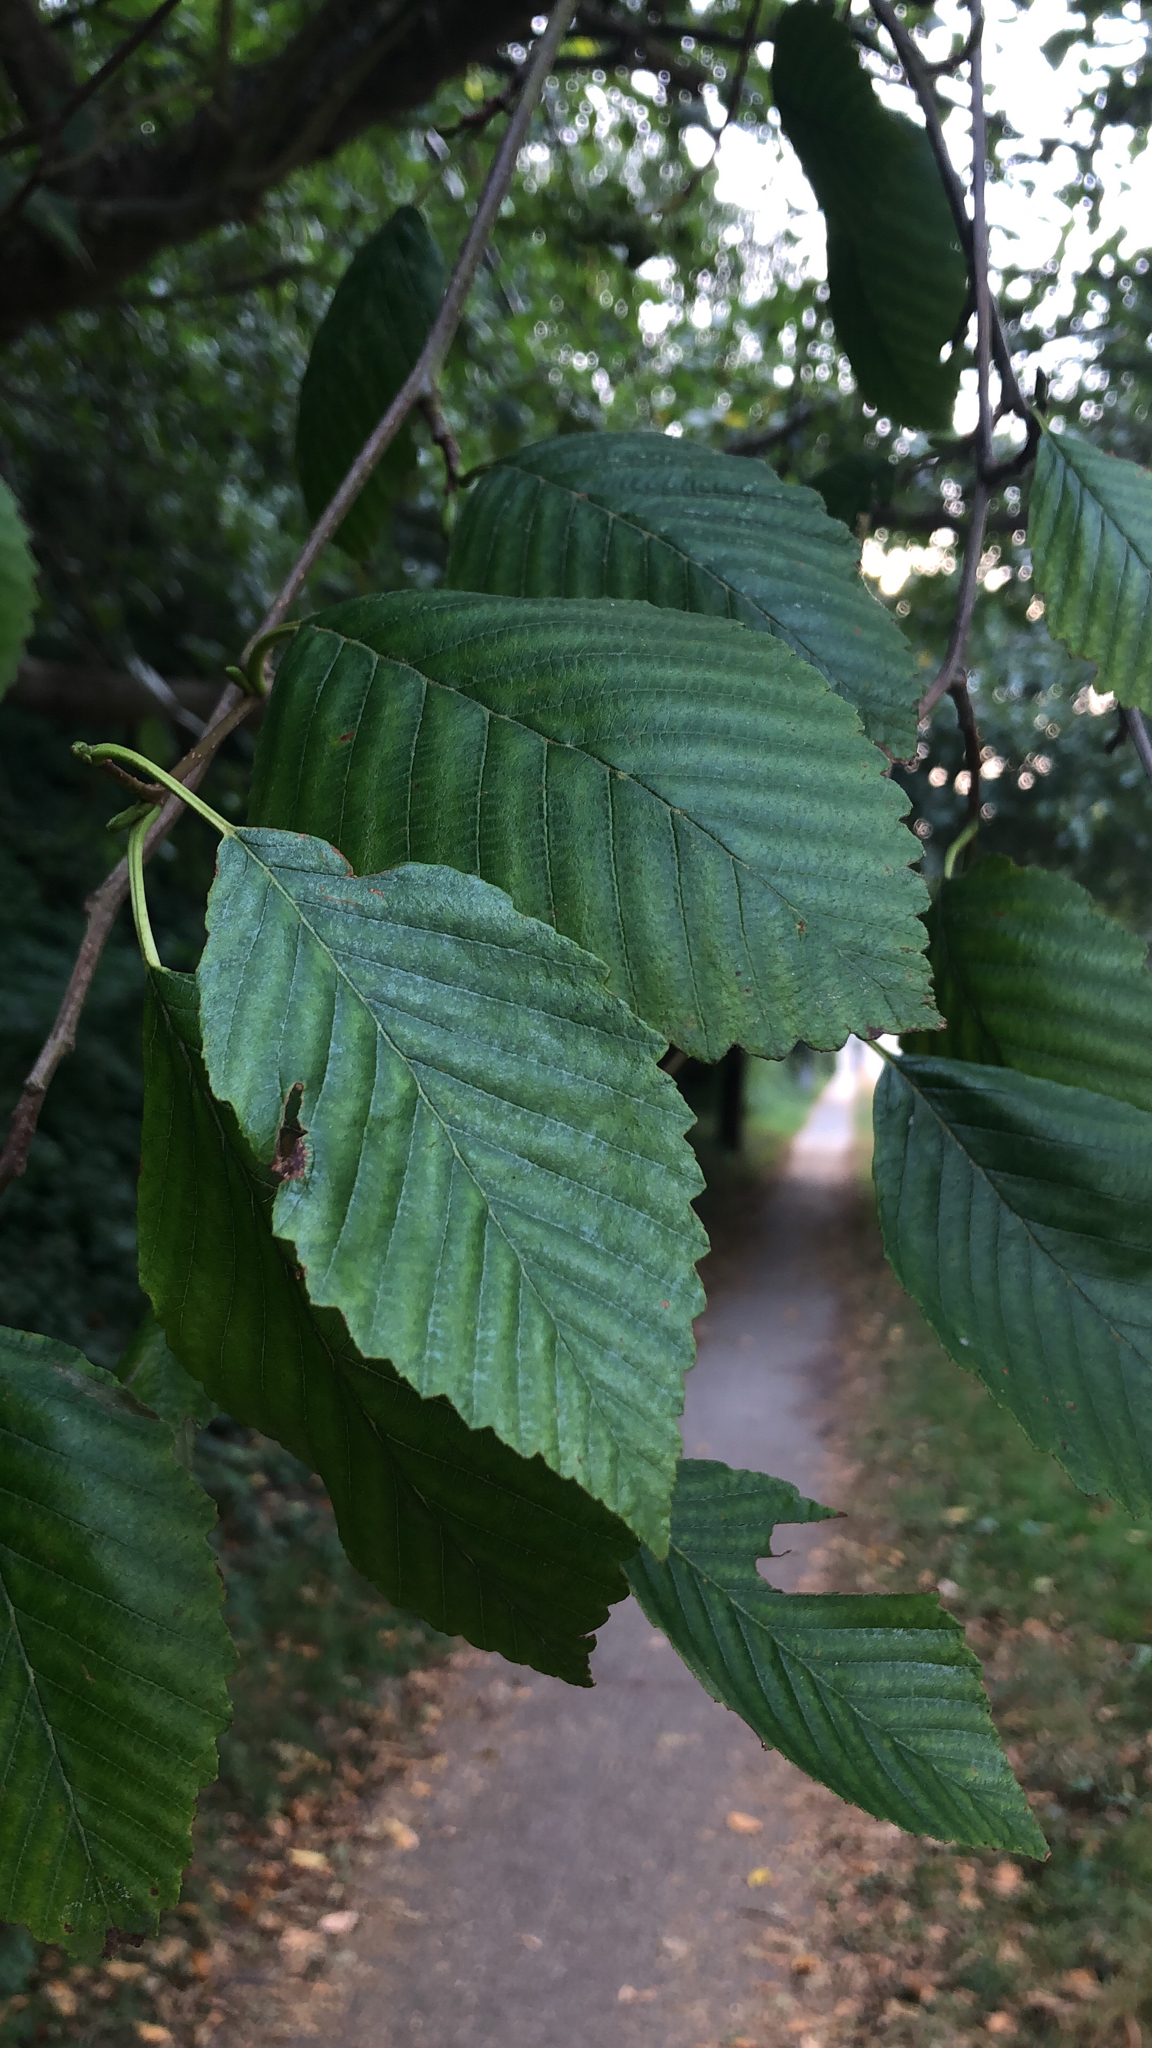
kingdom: Plantae
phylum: Tracheophyta
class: Magnoliopsida
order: Fagales
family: Betulaceae
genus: Alnus
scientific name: Alnus rubra
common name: Red alder
